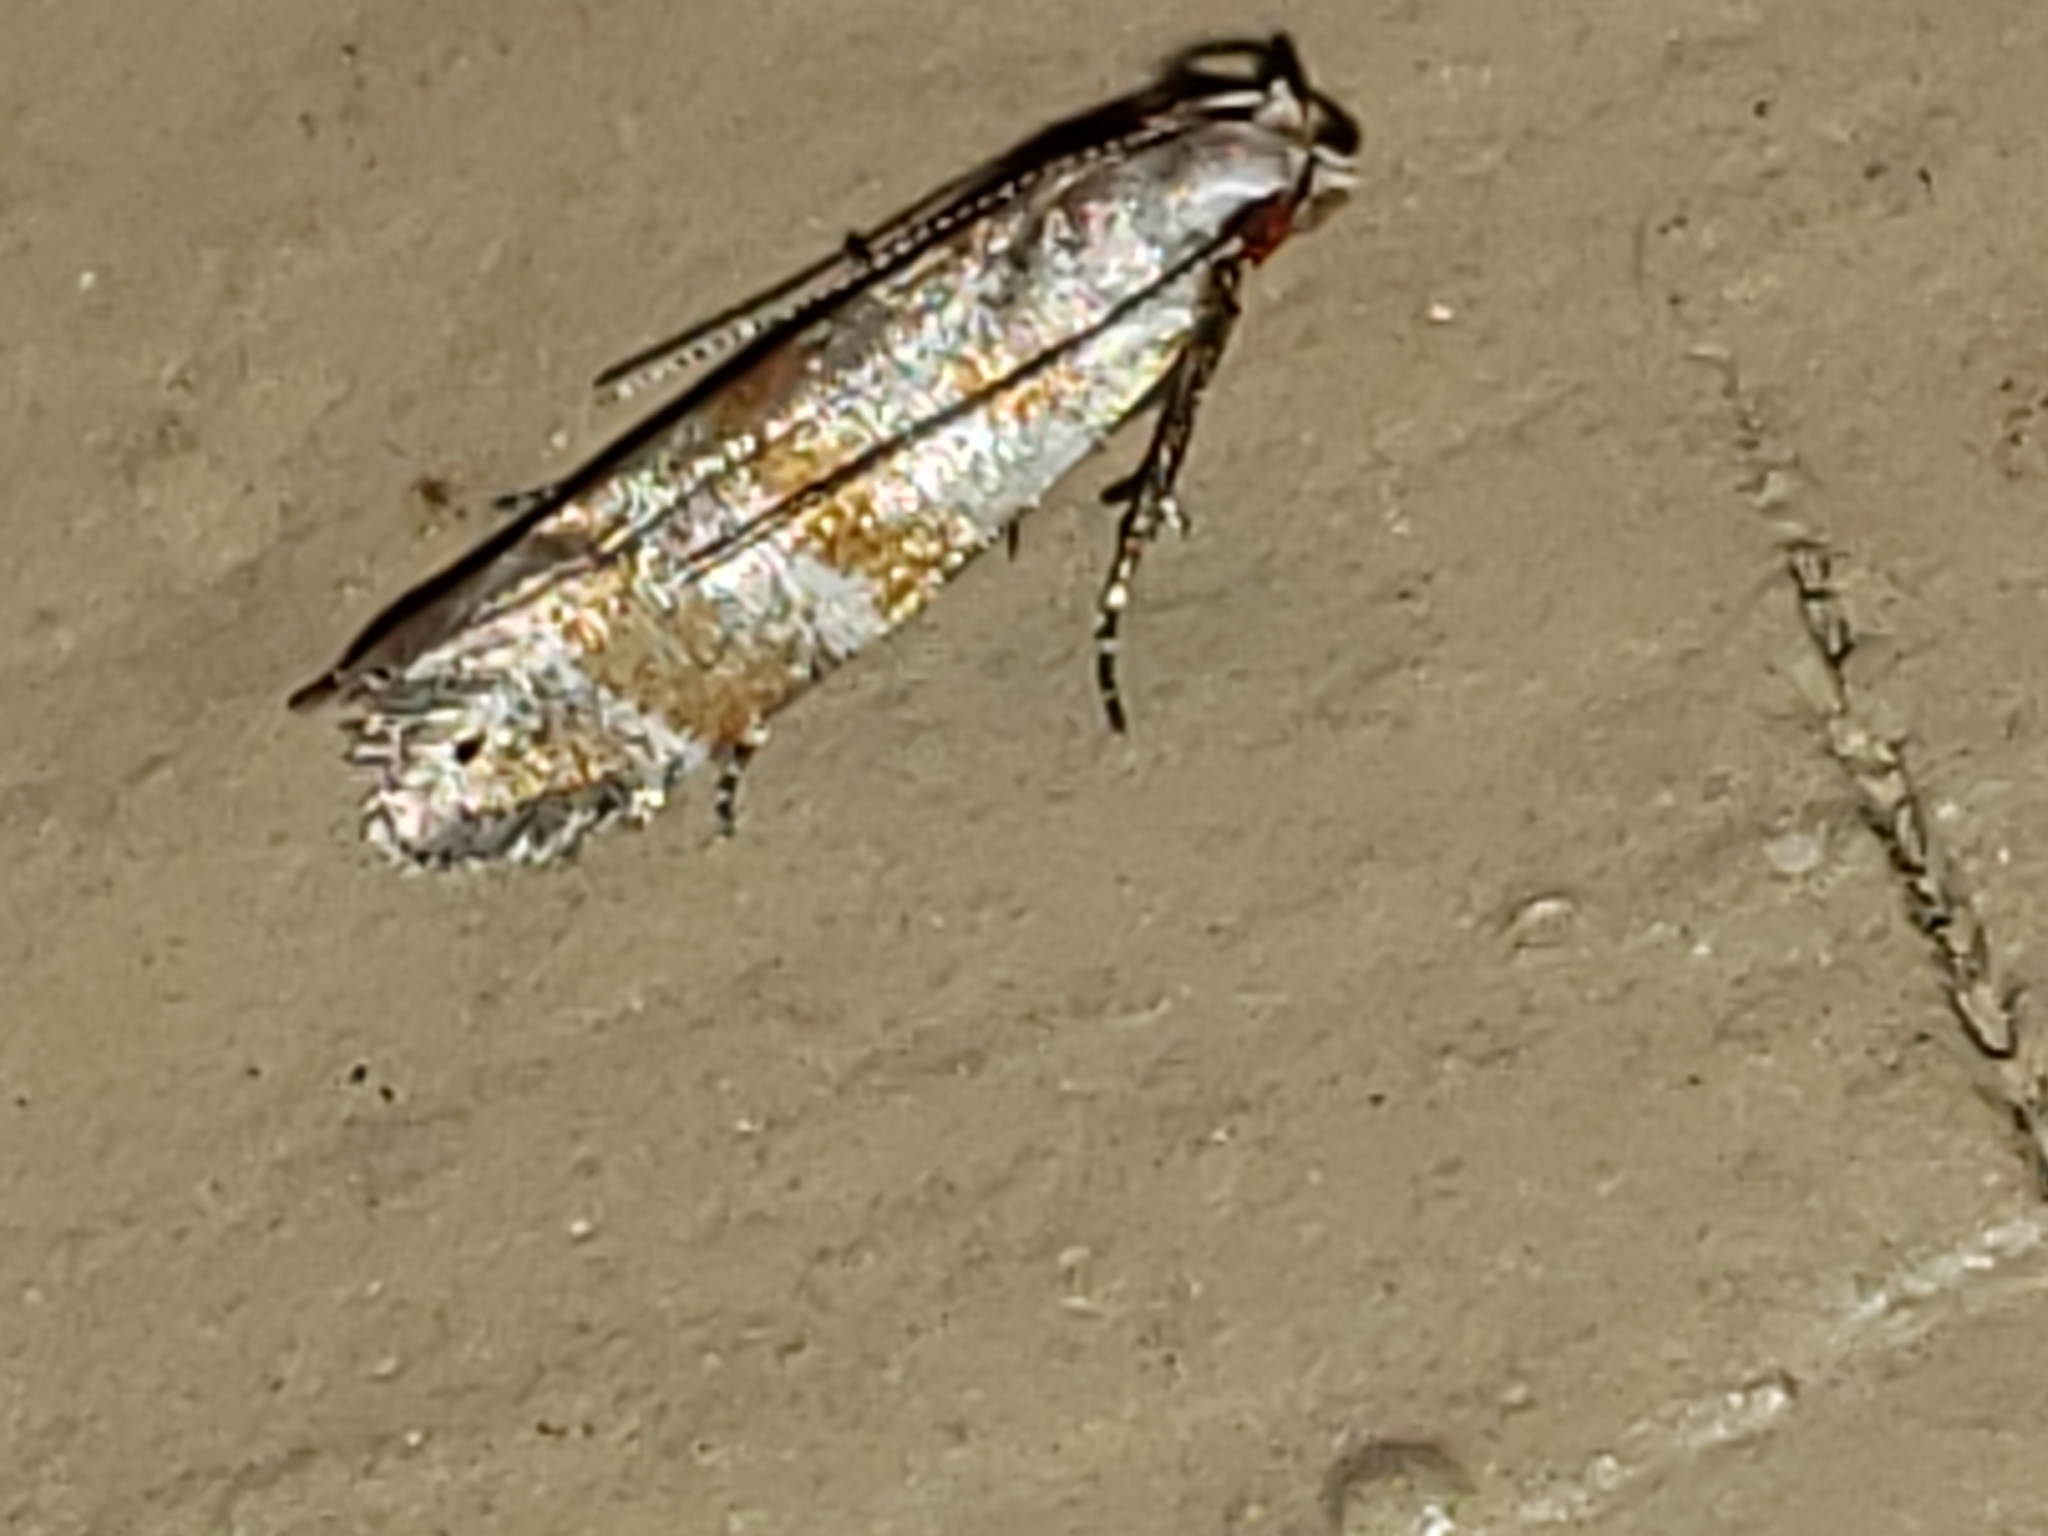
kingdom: Animalia
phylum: Arthropoda
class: Insecta
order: Lepidoptera
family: Gelechiidae
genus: Battaristis
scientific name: Battaristis vittella
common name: Orange stripe-backed moth
